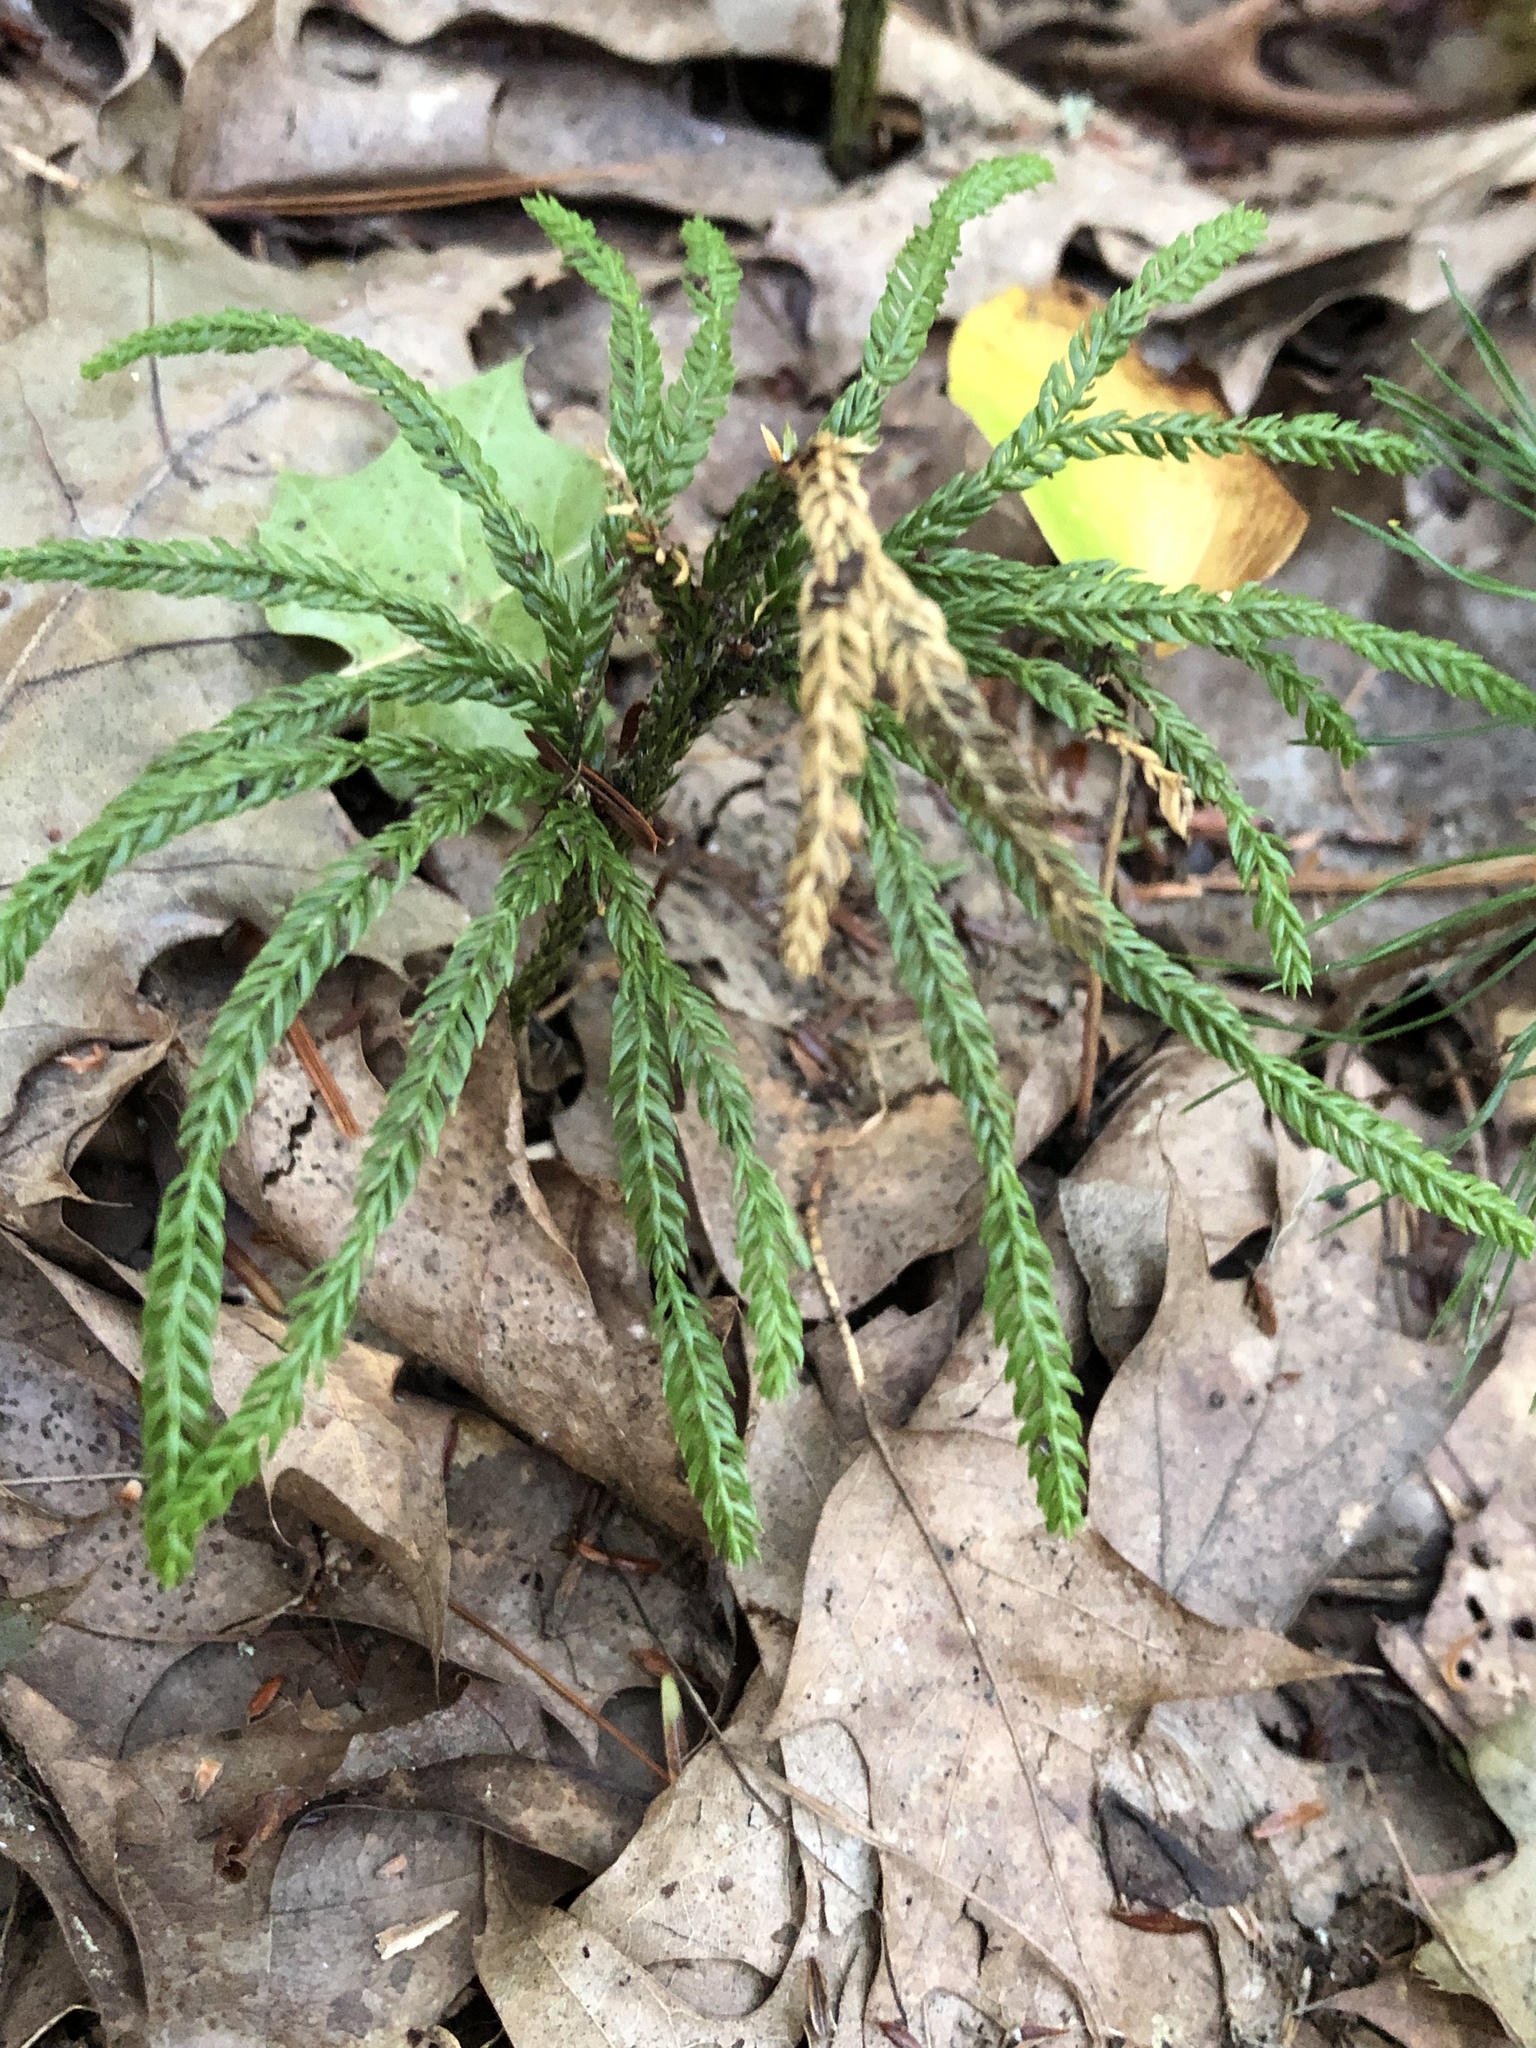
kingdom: Plantae
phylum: Tracheophyta
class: Lycopodiopsida
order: Lycopodiales
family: Lycopodiaceae
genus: Dendrolycopodium
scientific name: Dendrolycopodium obscurum
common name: Common ground-pine
